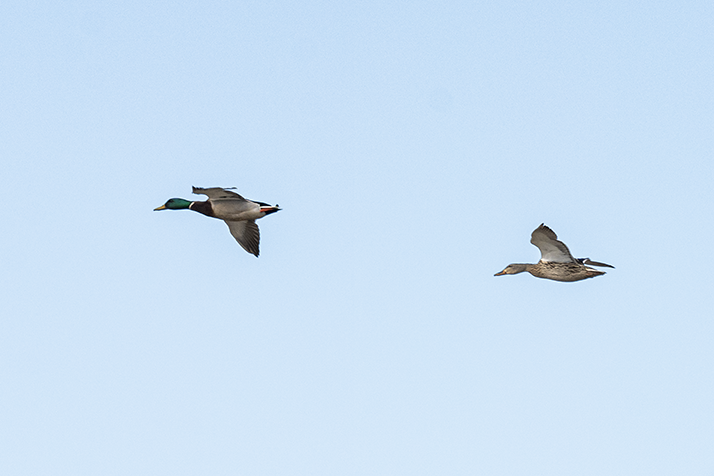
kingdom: Animalia
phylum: Chordata
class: Aves
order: Anseriformes
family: Anatidae
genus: Anas
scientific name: Anas platyrhynchos
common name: Mallard
